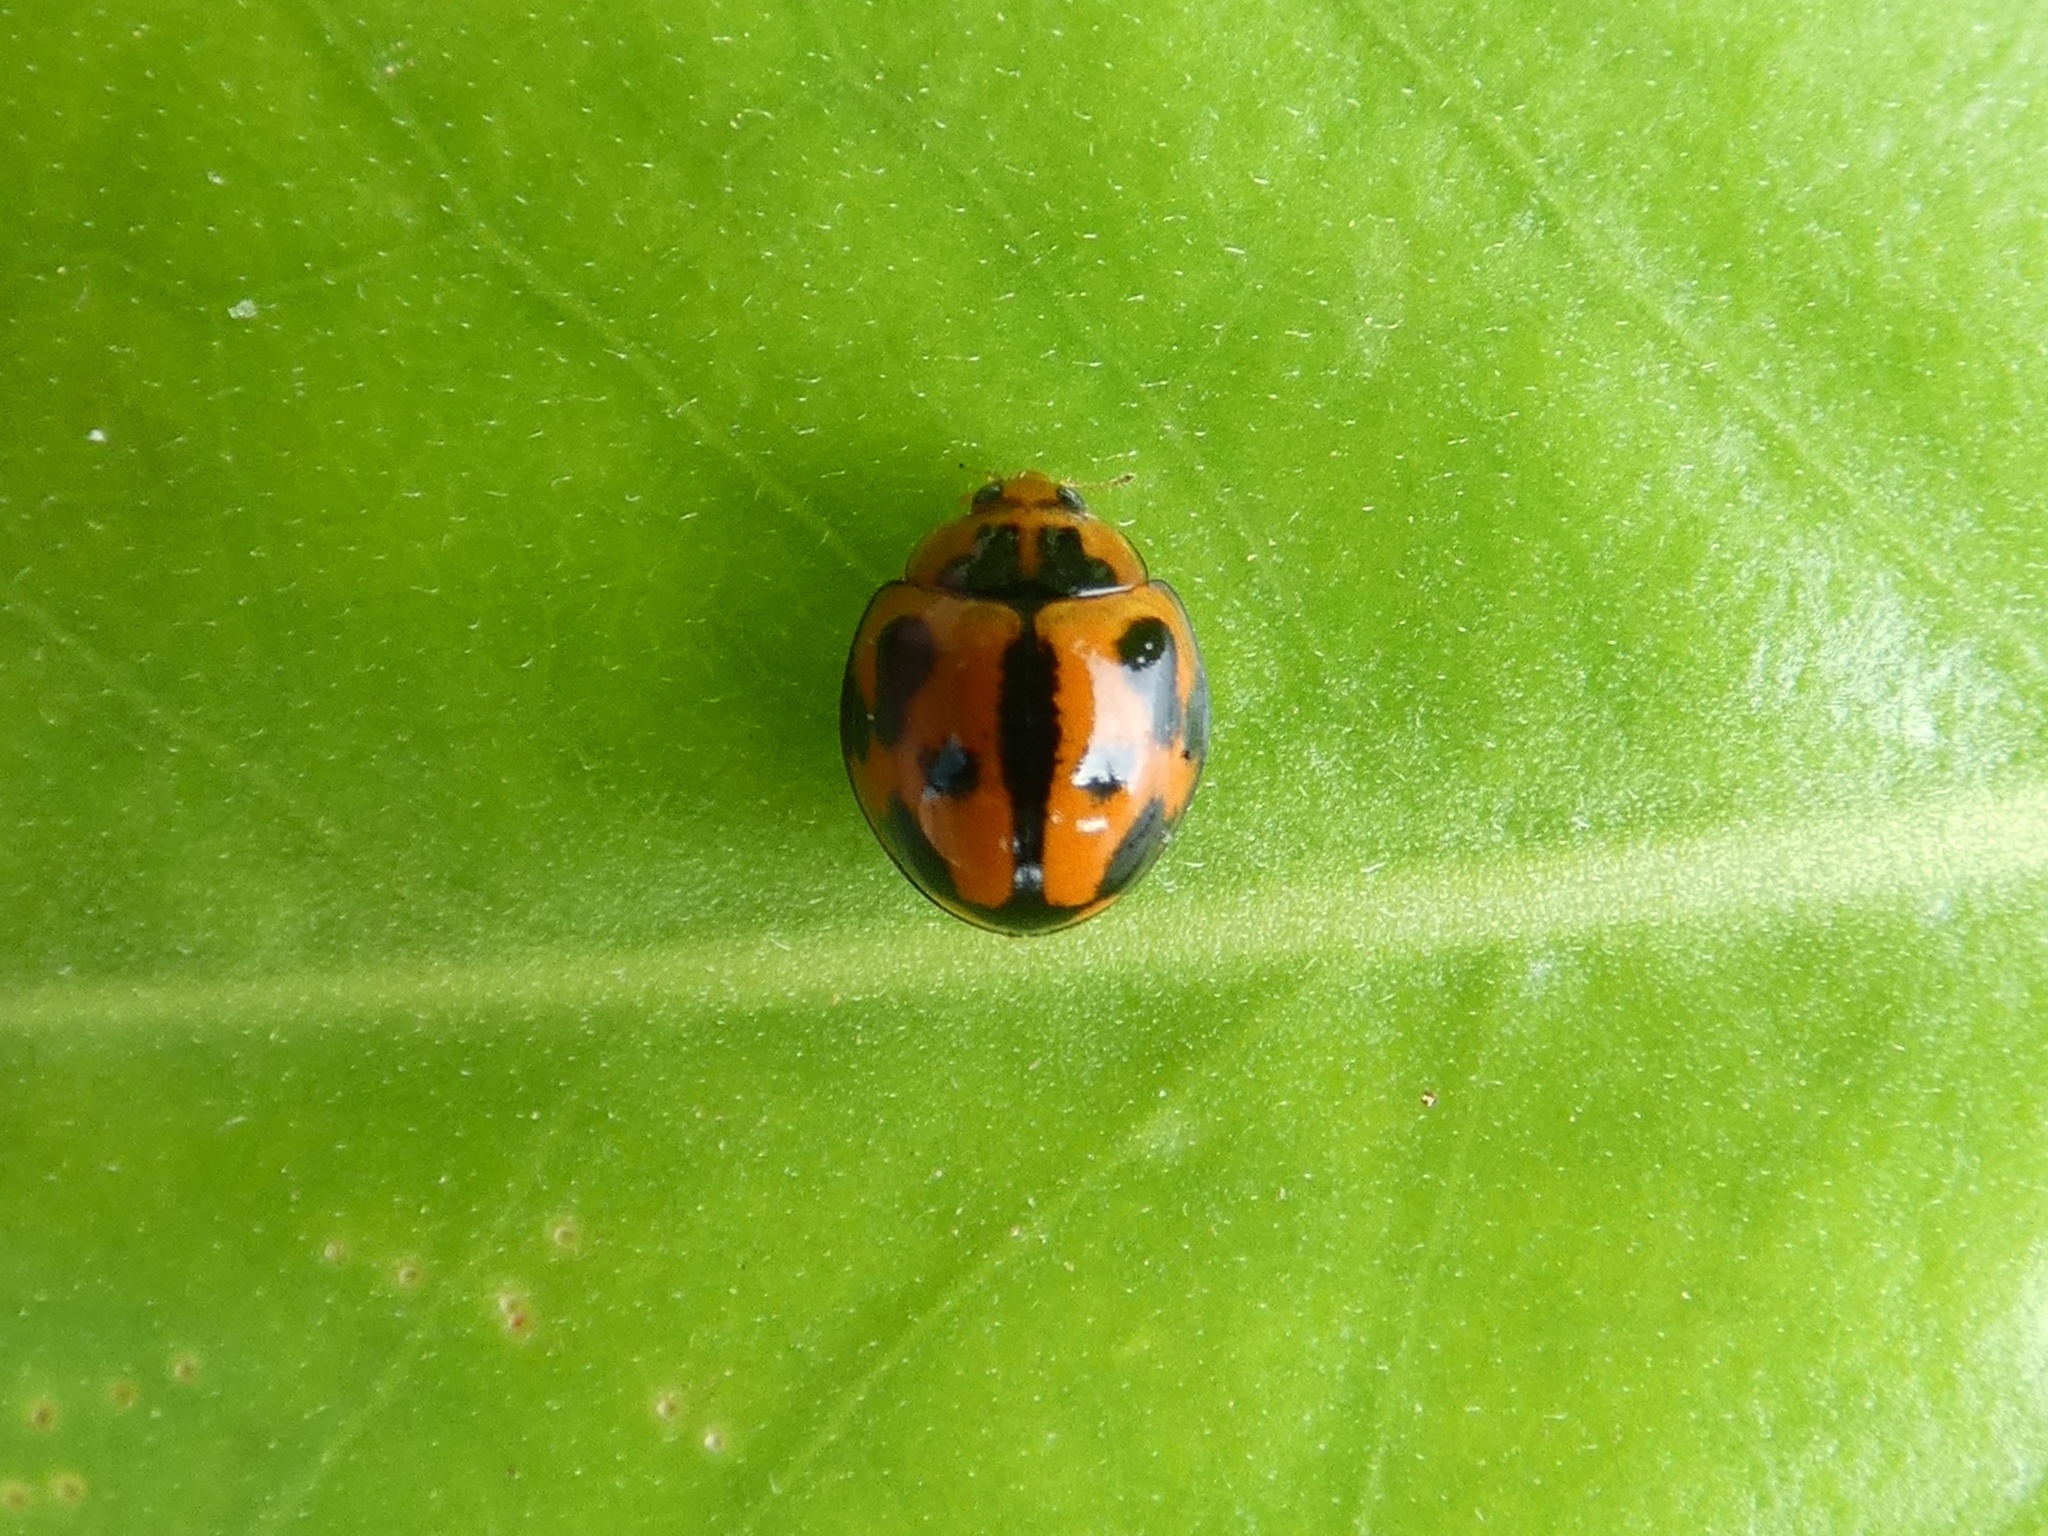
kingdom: Animalia
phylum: Arthropoda
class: Insecta
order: Coleoptera
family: Coccinellidae
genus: Coelophora
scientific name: Coelophora inaequalis
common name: Common australian lady beetle
